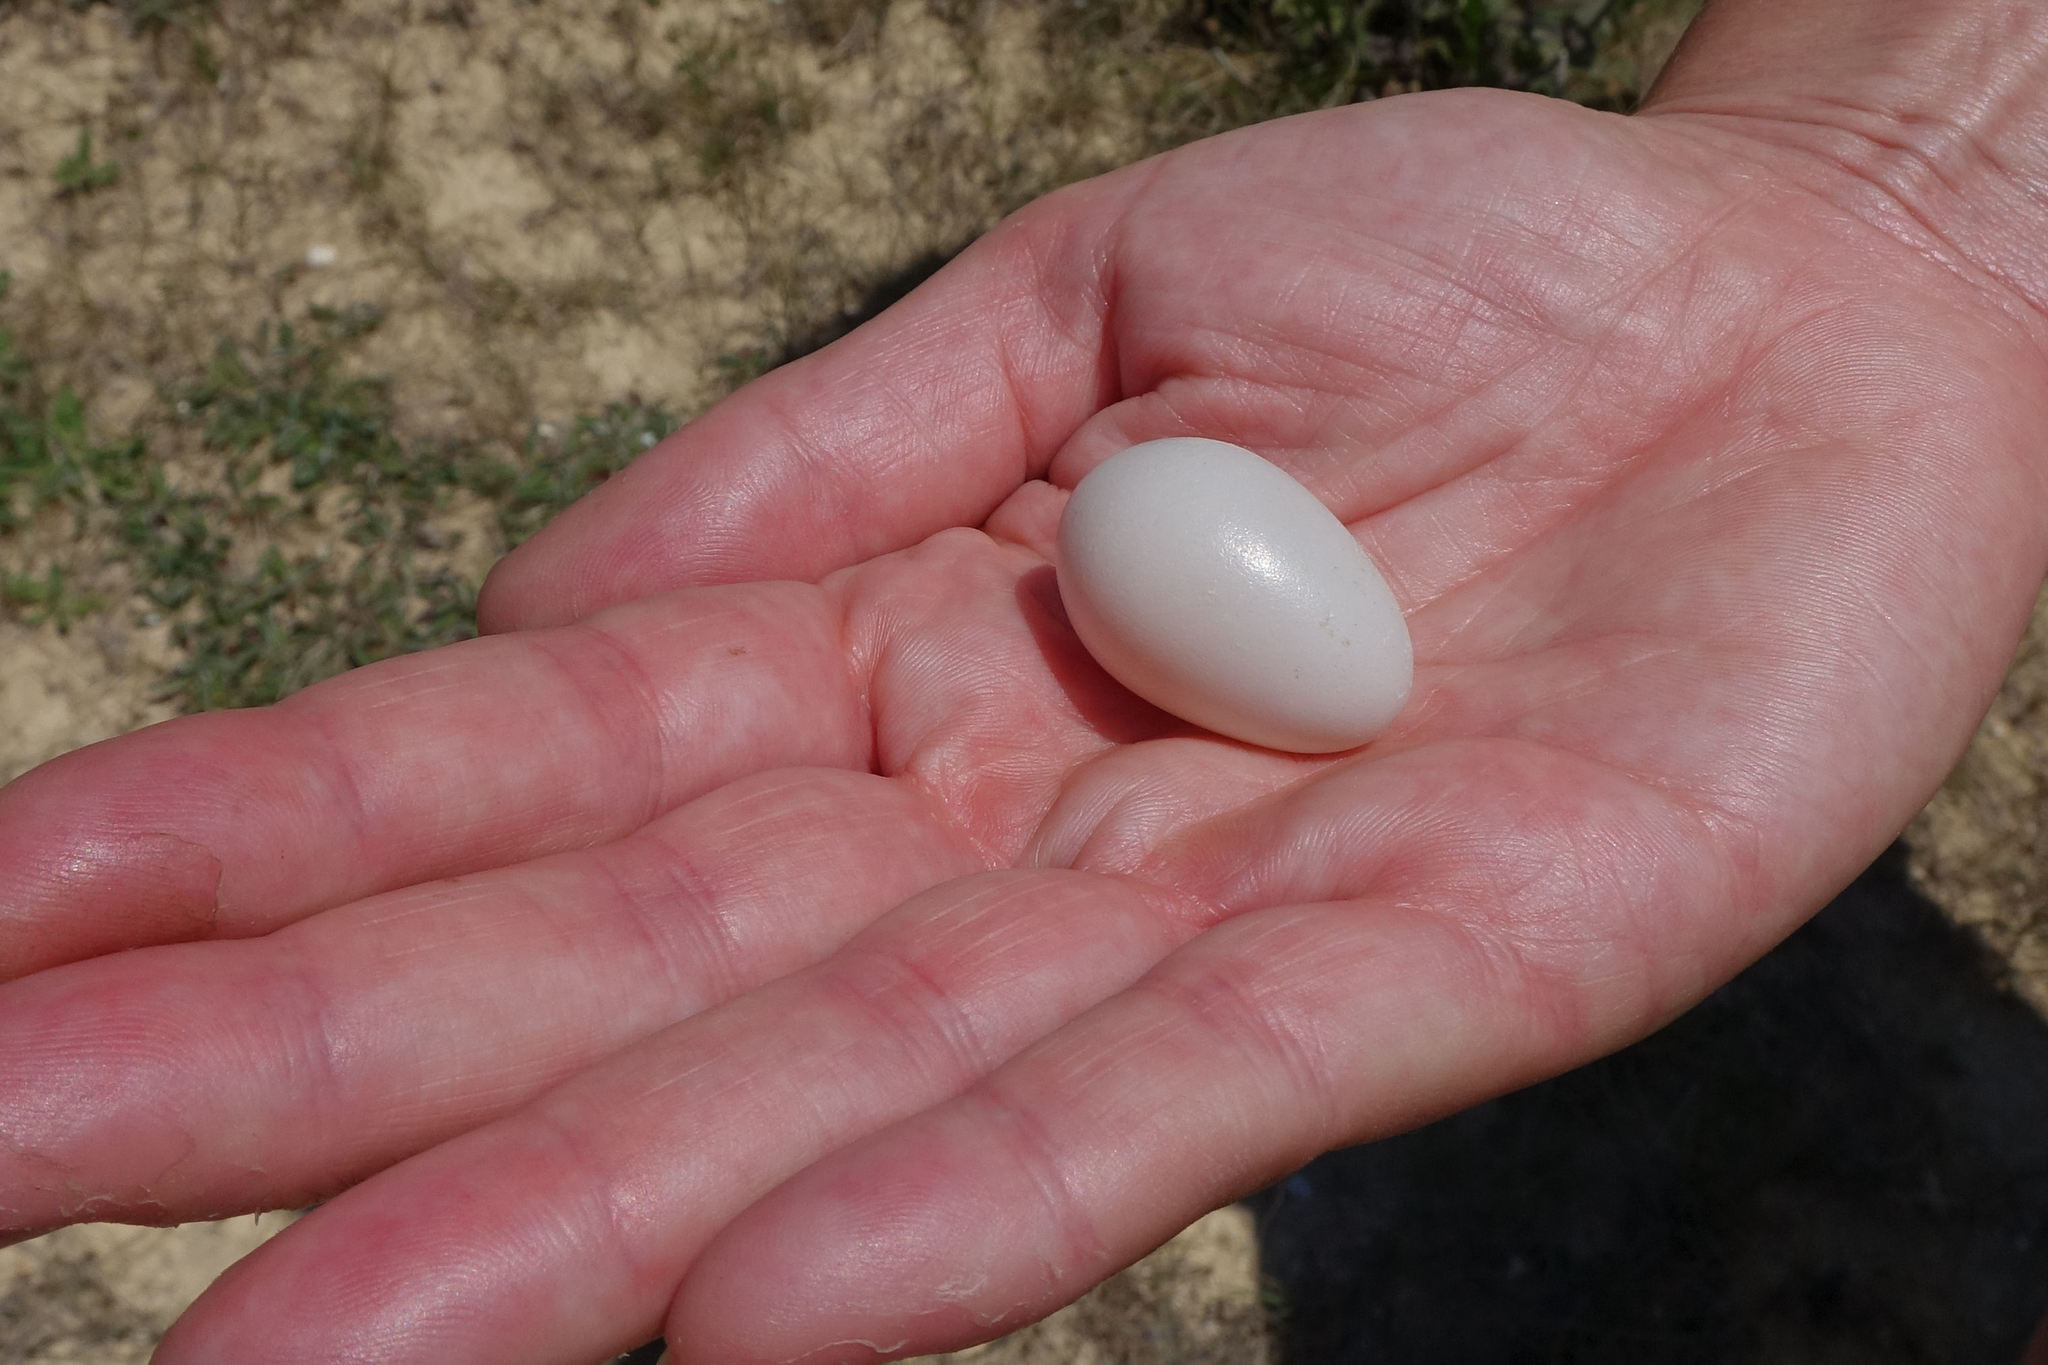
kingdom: Animalia
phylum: Chordata
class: Aves
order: Columbiformes
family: Columbidae
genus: Columba
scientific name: Columba livia
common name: Rock pigeon
